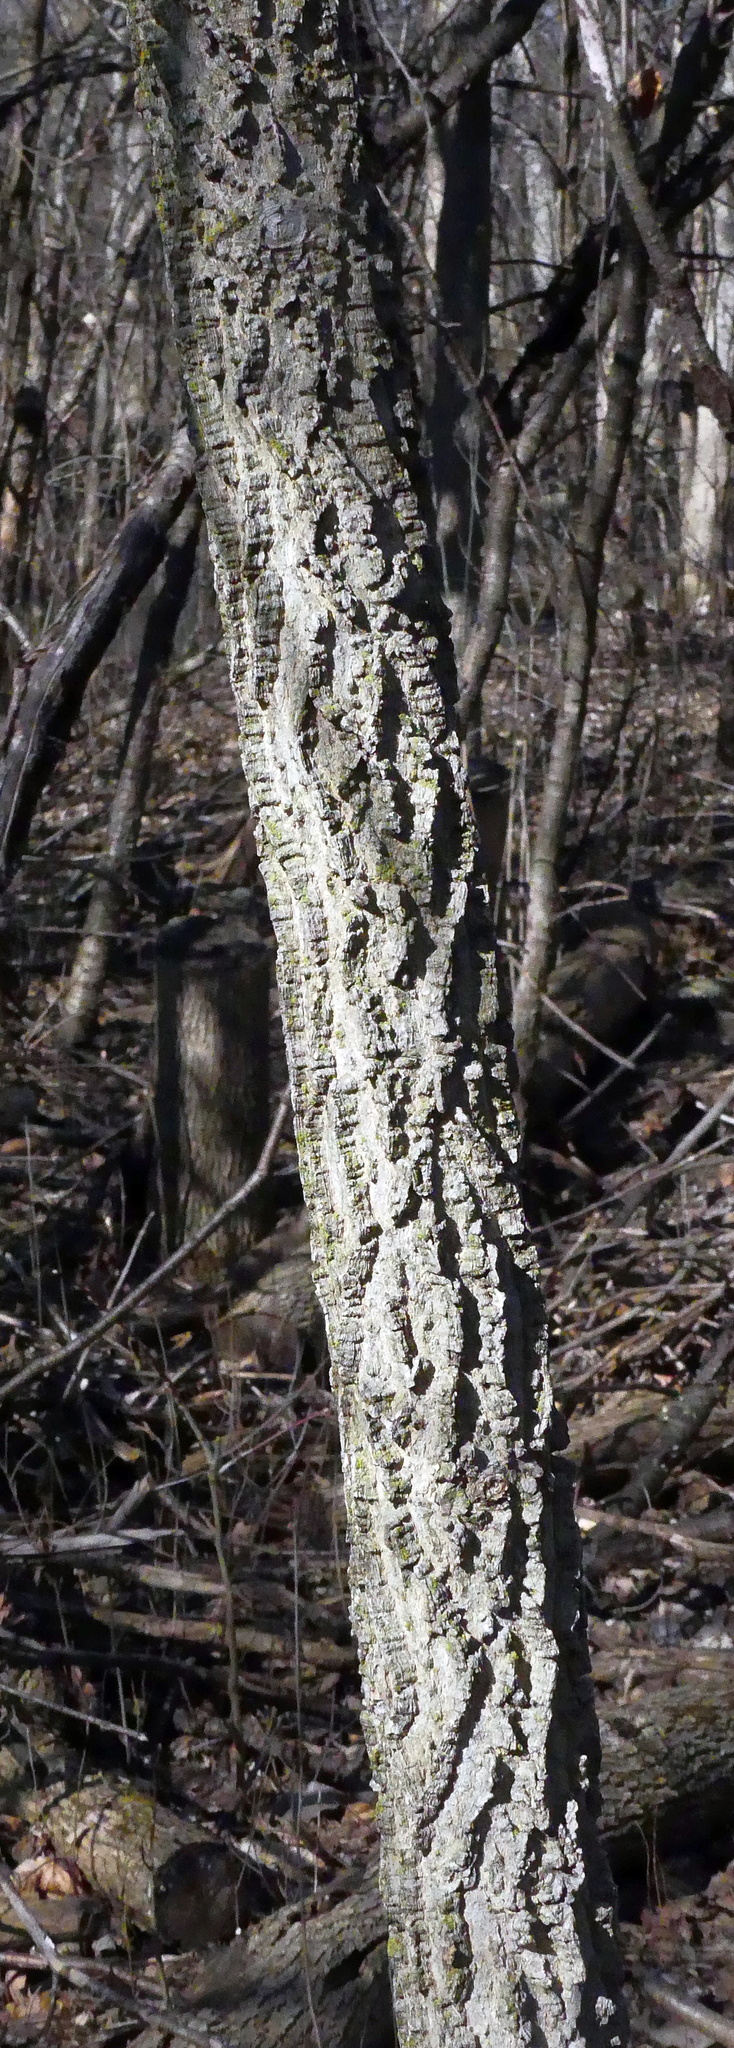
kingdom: Plantae
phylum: Tracheophyta
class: Magnoliopsida
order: Rosales
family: Cannabaceae
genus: Celtis
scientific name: Celtis occidentalis
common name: Common hackberry
